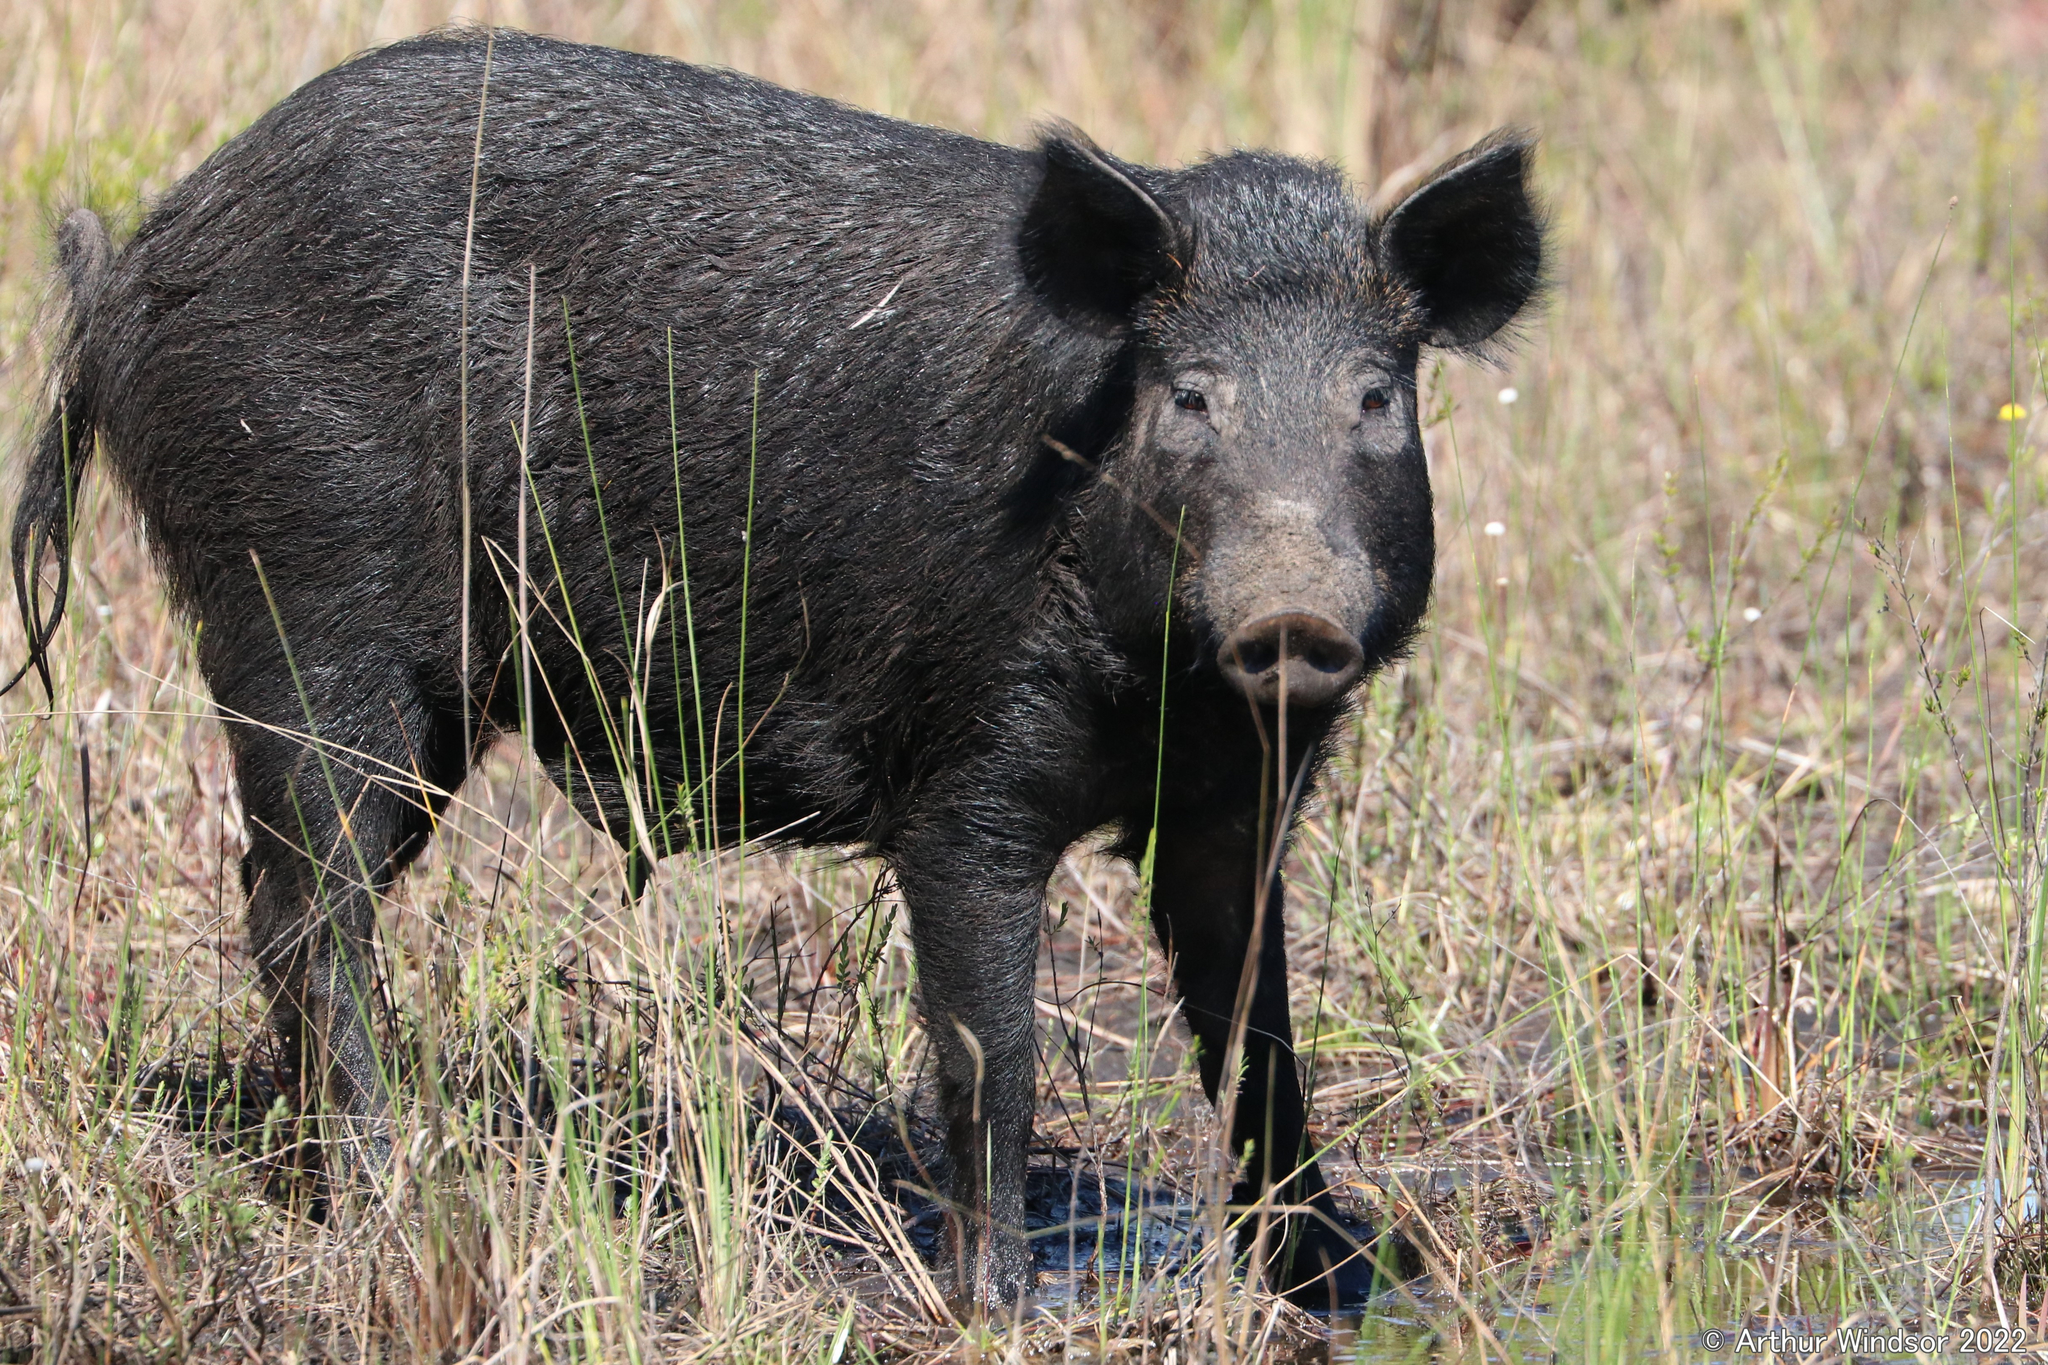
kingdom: Animalia
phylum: Chordata
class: Mammalia
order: Artiodactyla
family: Suidae
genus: Sus
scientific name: Sus scrofa
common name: Wild boar
